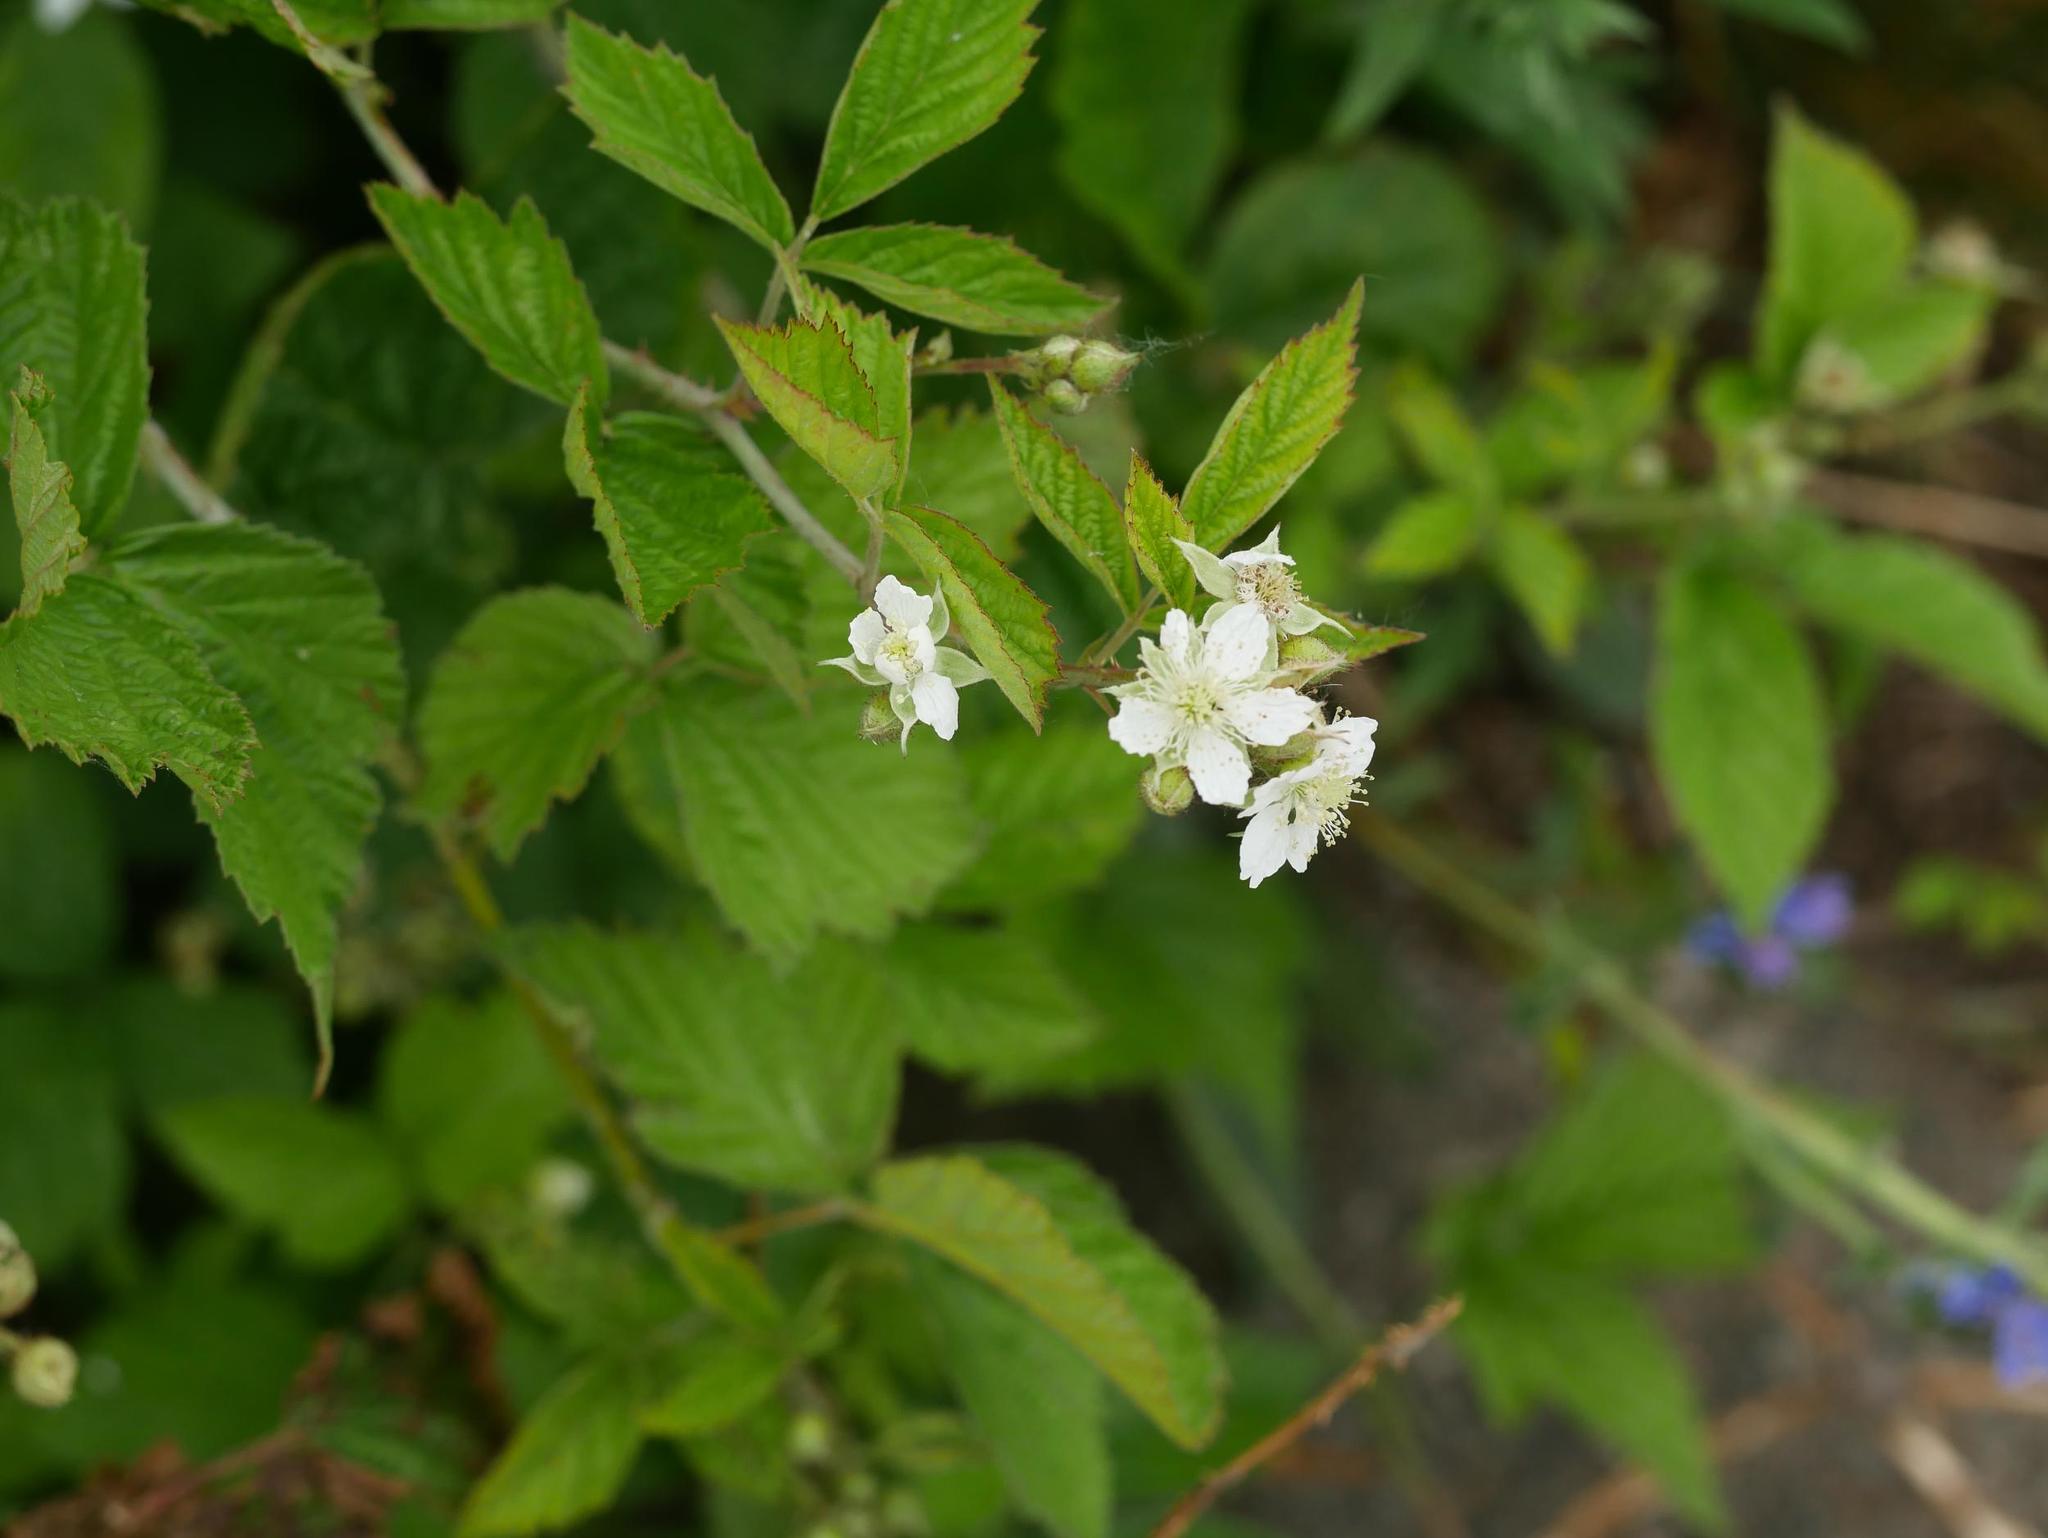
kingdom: Plantae
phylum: Tracheophyta
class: Magnoliopsida
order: Rosales
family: Rosaceae
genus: Rubus
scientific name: Rubus caesius
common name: Dewberry
